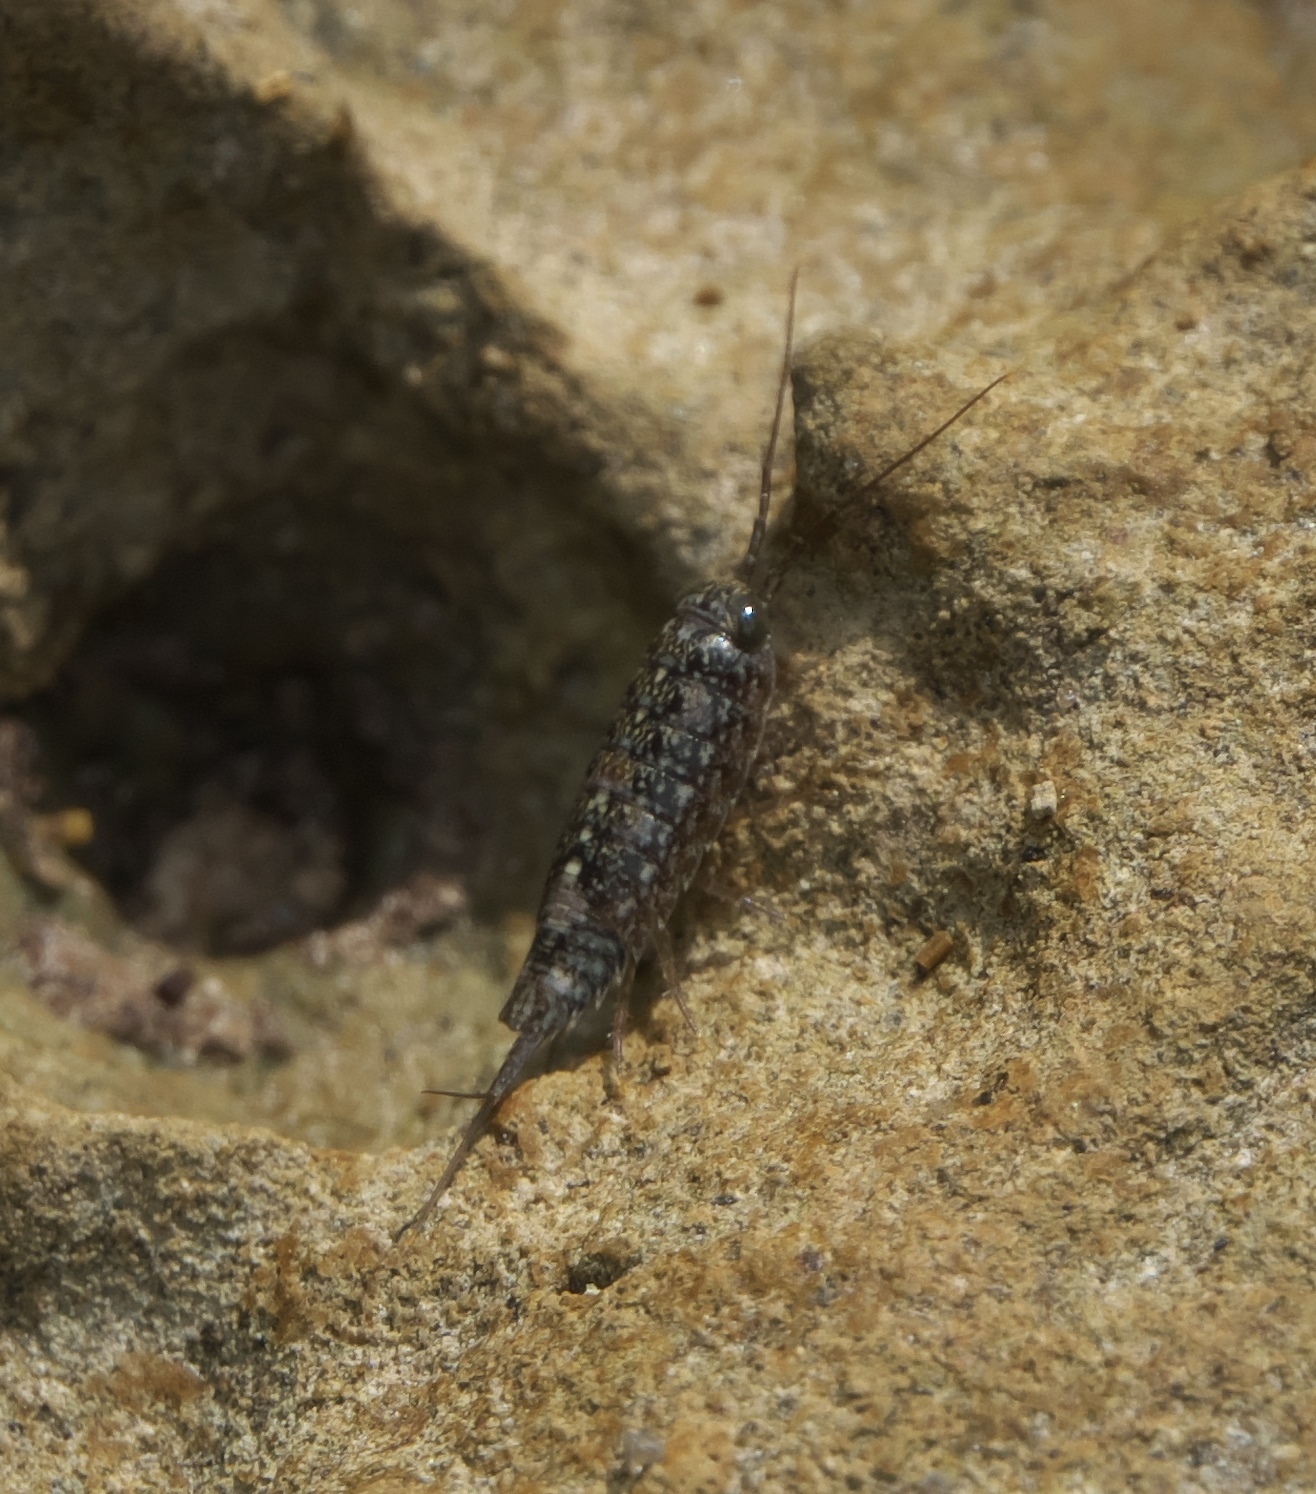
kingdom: Animalia
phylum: Arthropoda
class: Malacostraca
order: Isopoda
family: Ligiidae
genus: Ligia
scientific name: Ligia exotica
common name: Wharf roach
